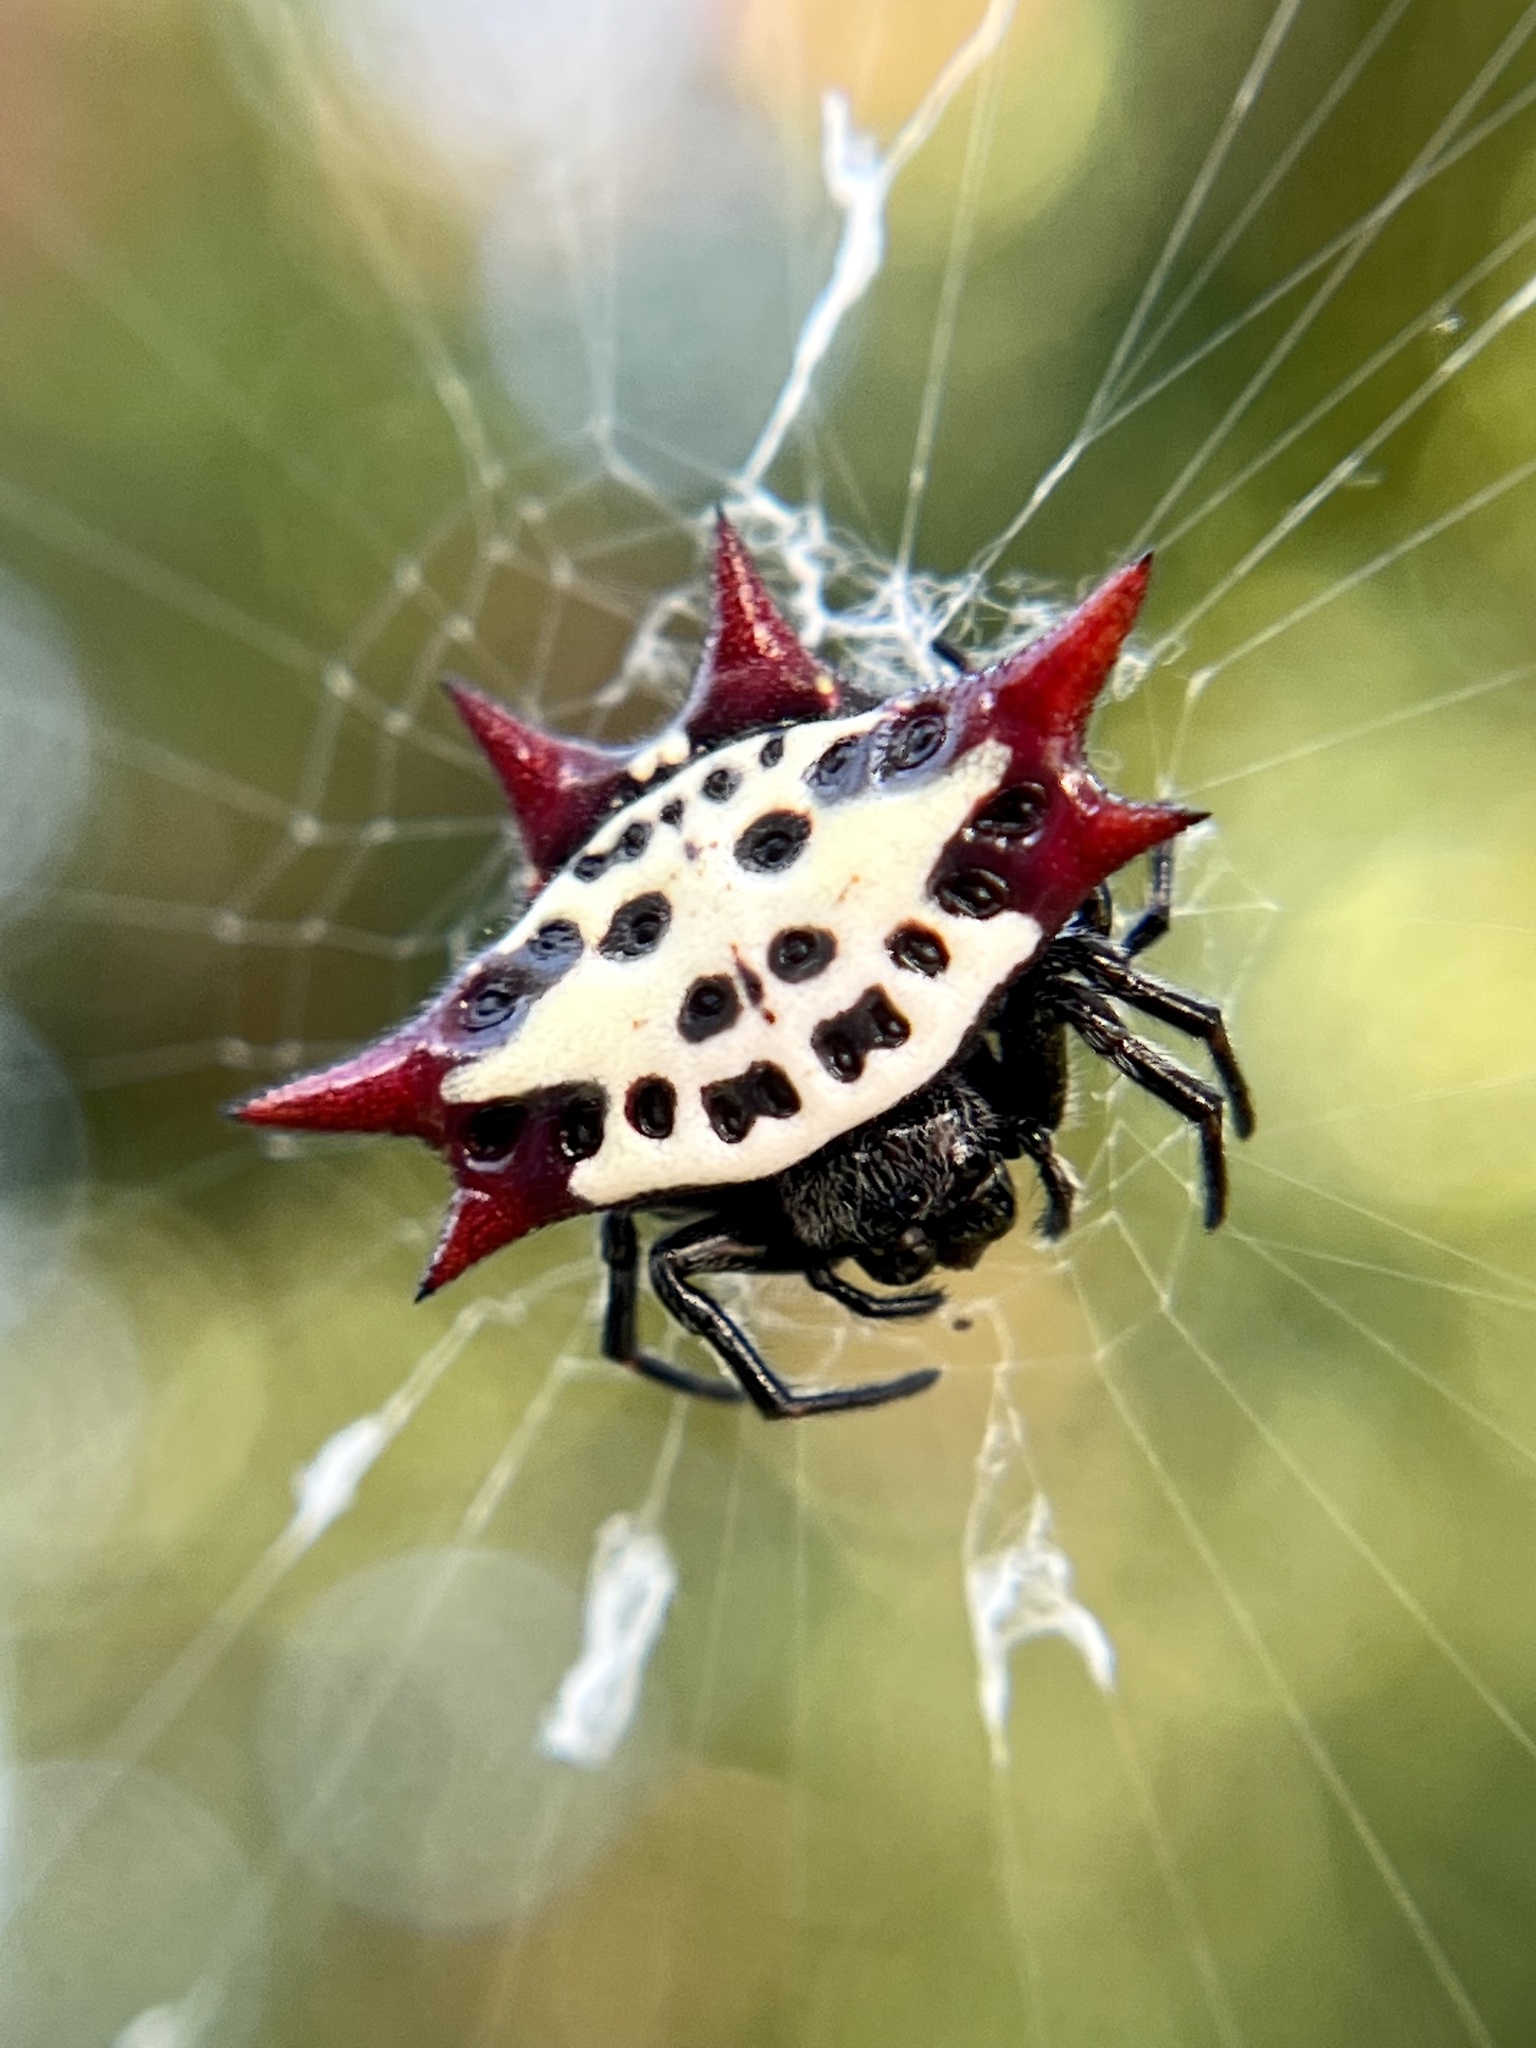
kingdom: Animalia
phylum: Arthropoda
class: Arachnida
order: Araneae
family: Araneidae
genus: Gasteracantha
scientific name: Gasteracantha cancriformis
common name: Orb weavers
